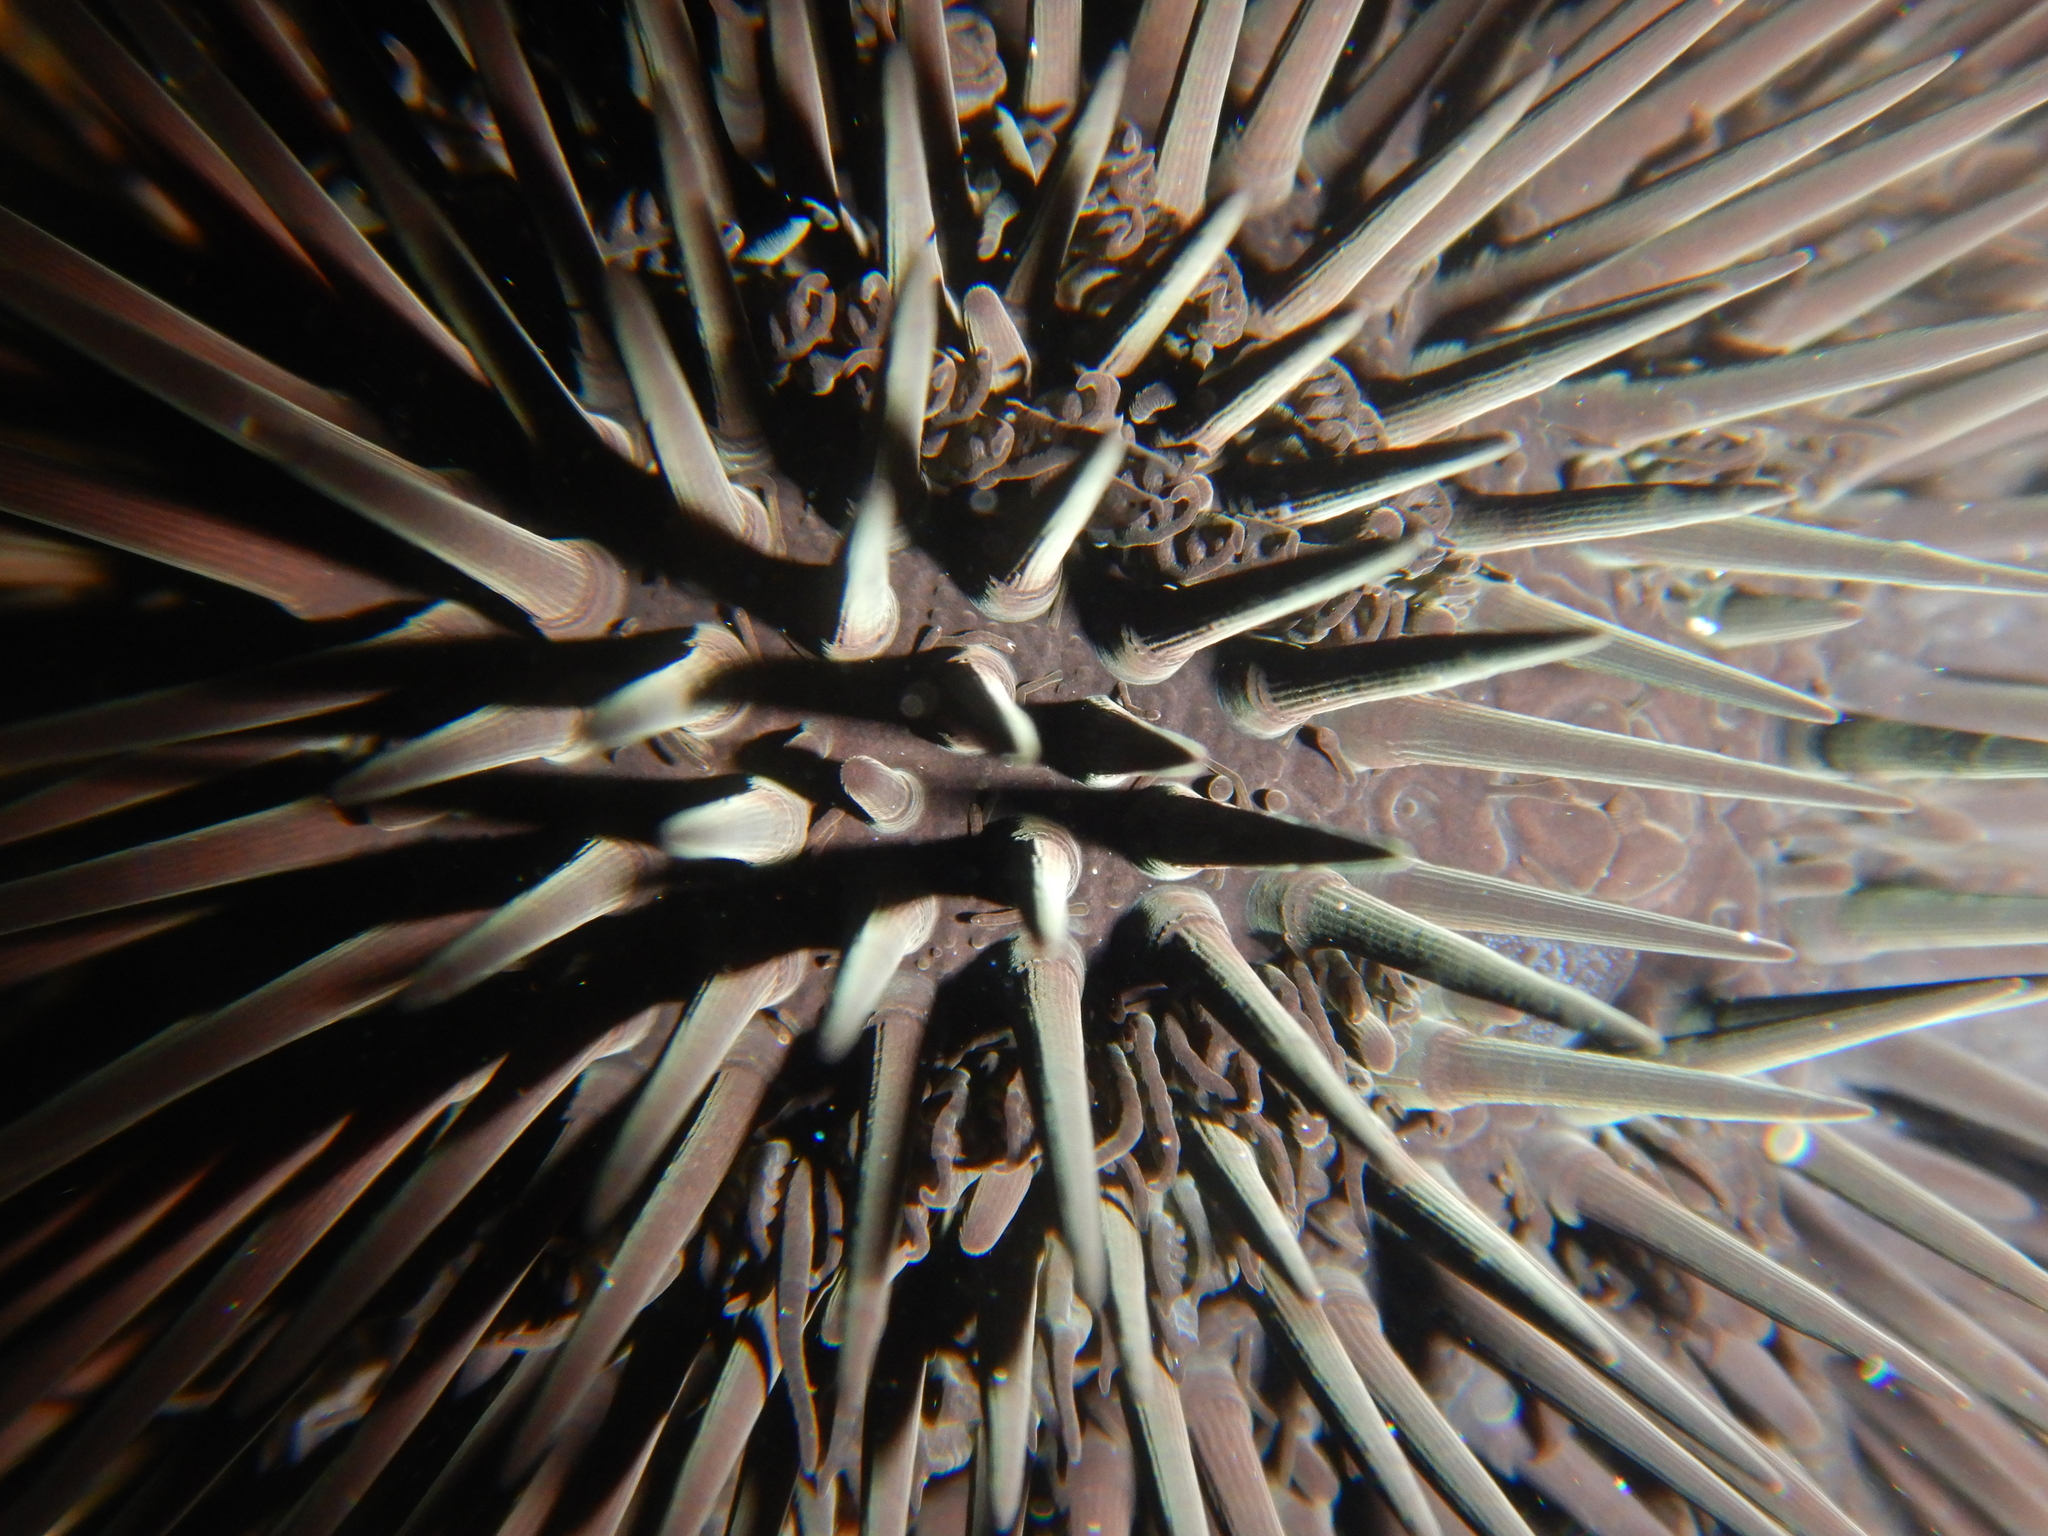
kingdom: Animalia
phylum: Echinodermata
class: Echinoidea
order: Arbacioida
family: Arbaciidae
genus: Arbacia
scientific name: Arbacia lixula
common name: Black sea urchin
